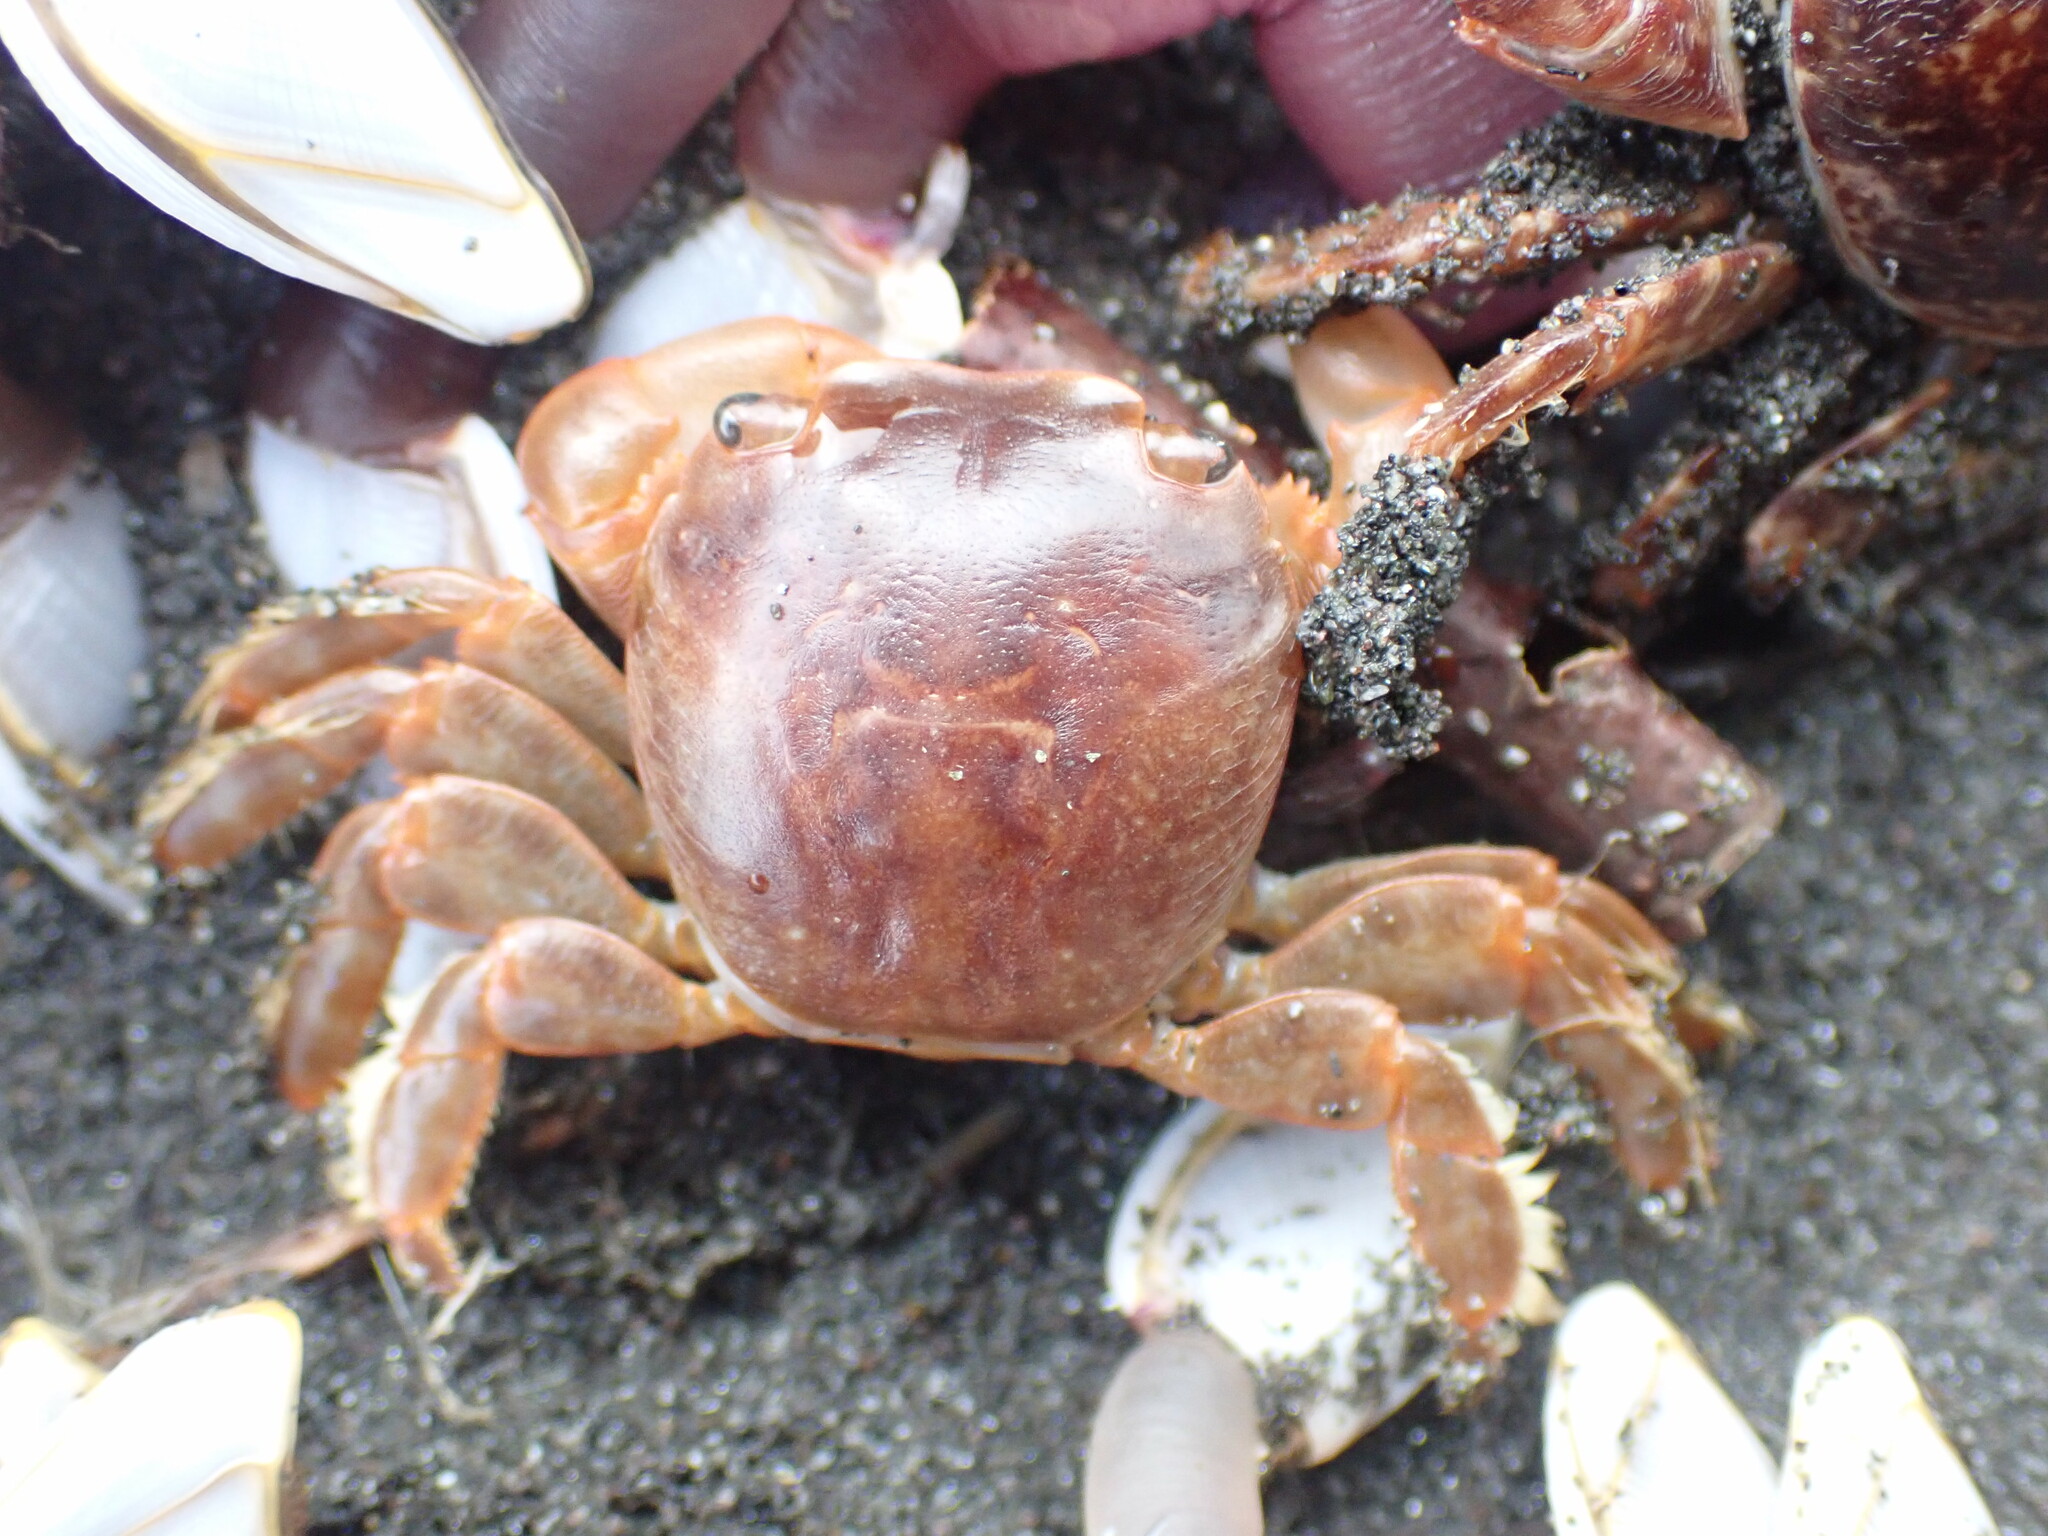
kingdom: Animalia
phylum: Arthropoda
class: Malacostraca
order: Decapoda
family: Grapsidae
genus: Planes
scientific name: Planes minutus
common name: Gulf weed crab
